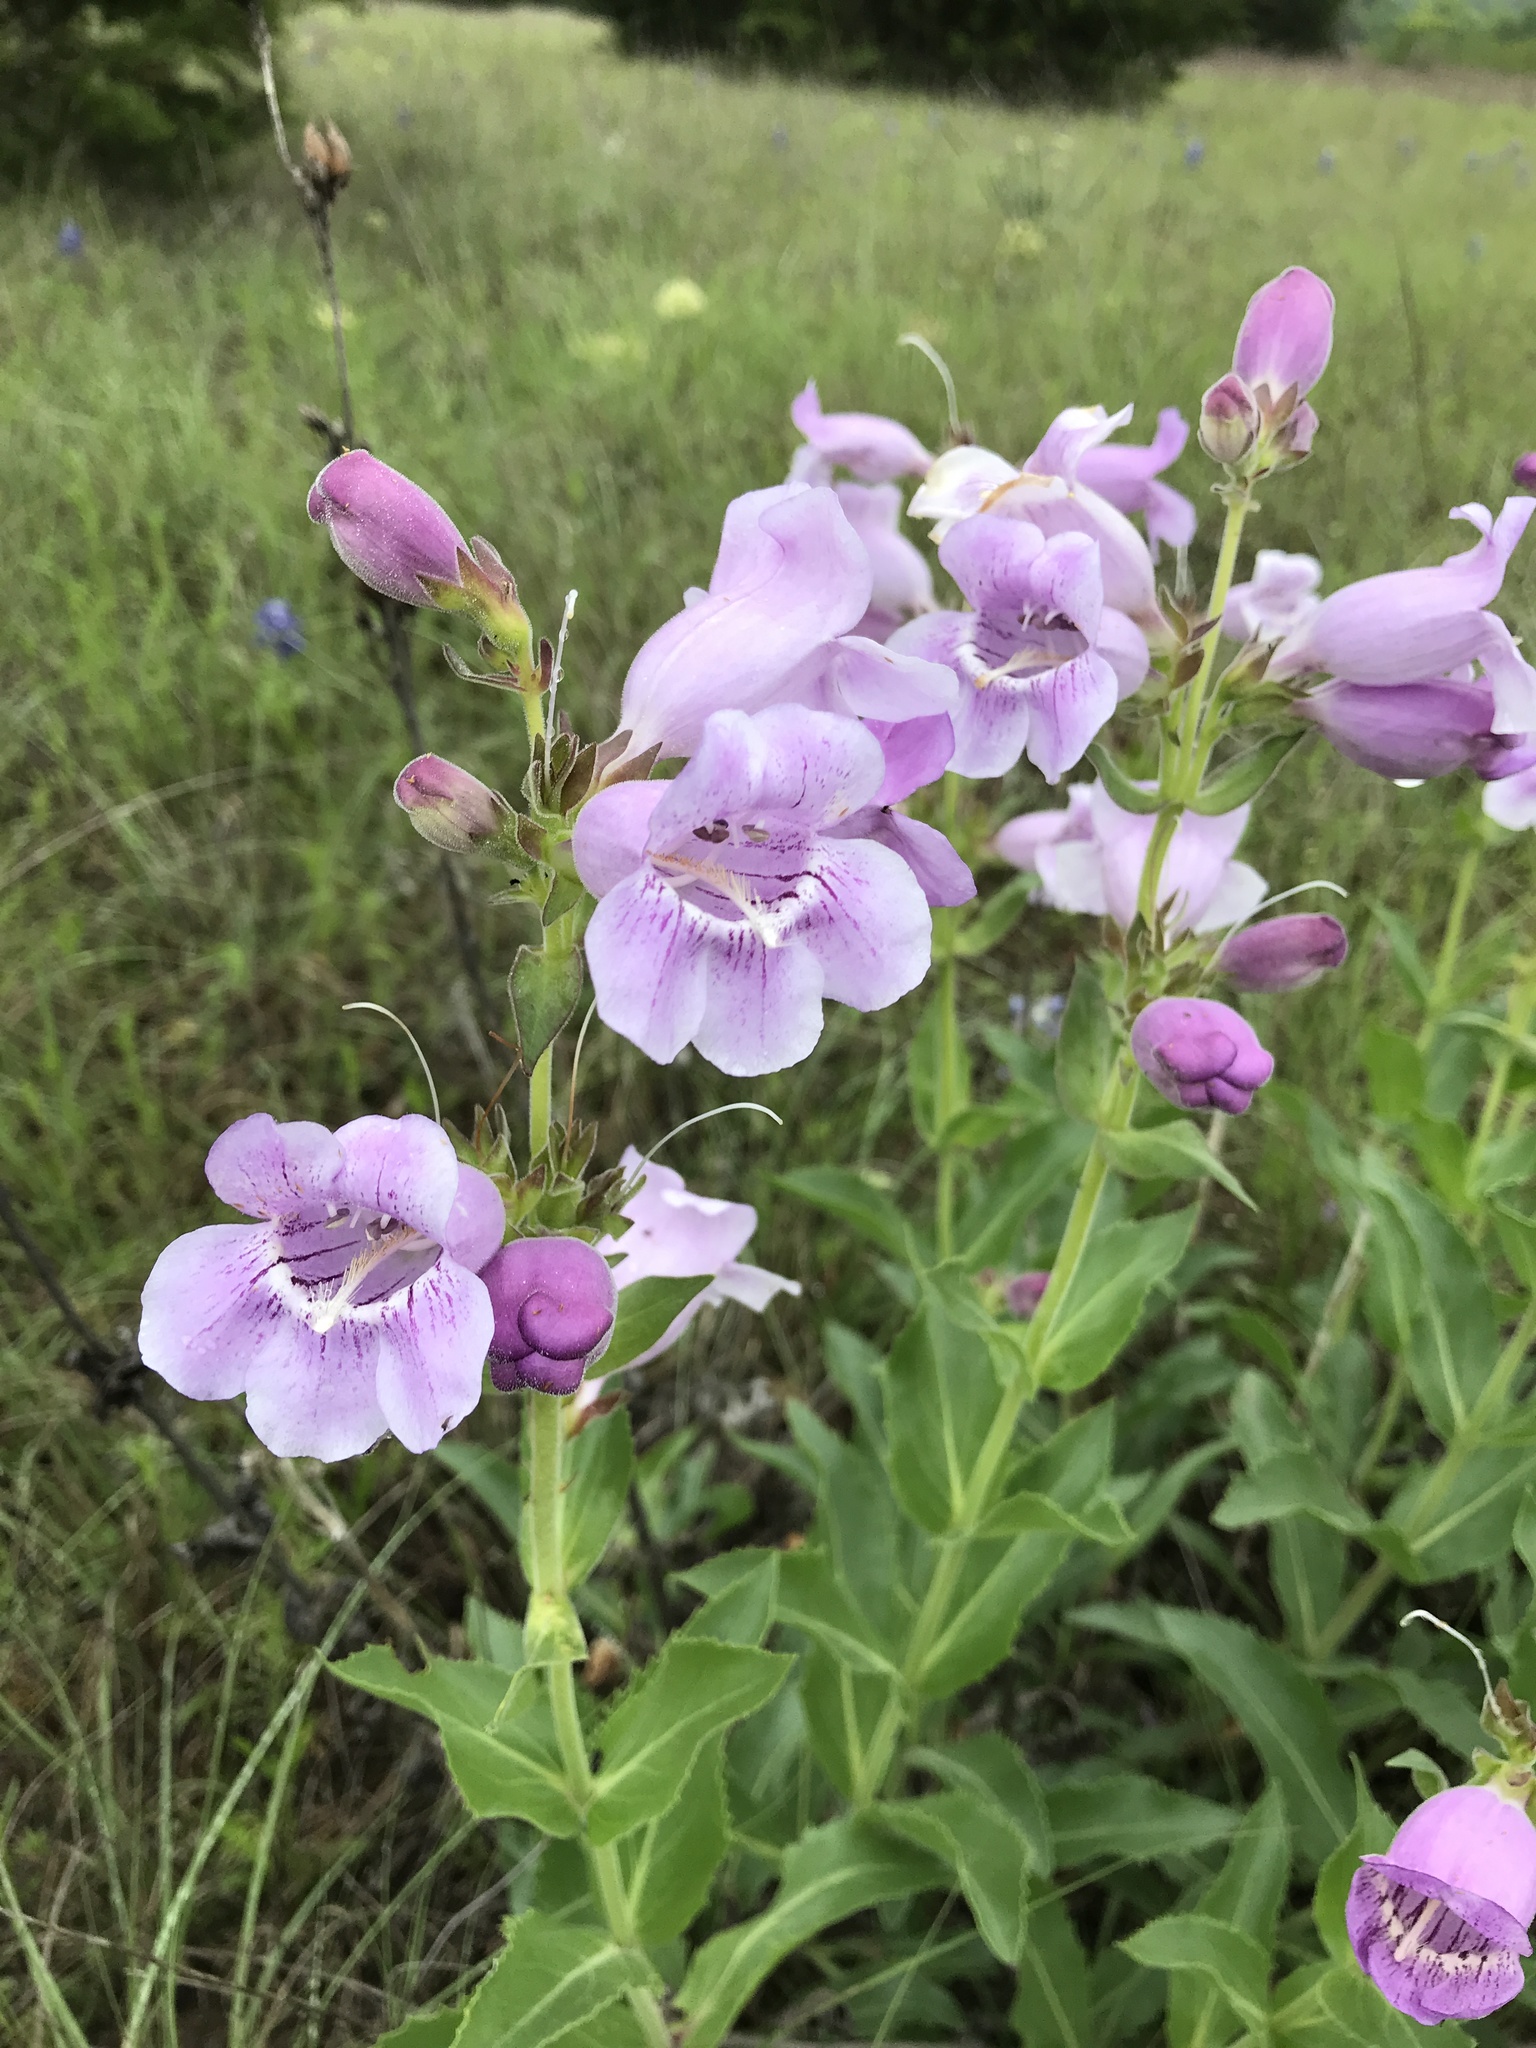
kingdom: Plantae
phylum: Tracheophyta
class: Magnoliopsida
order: Lamiales
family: Plantaginaceae
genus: Penstemon
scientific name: Penstemon cobaea
